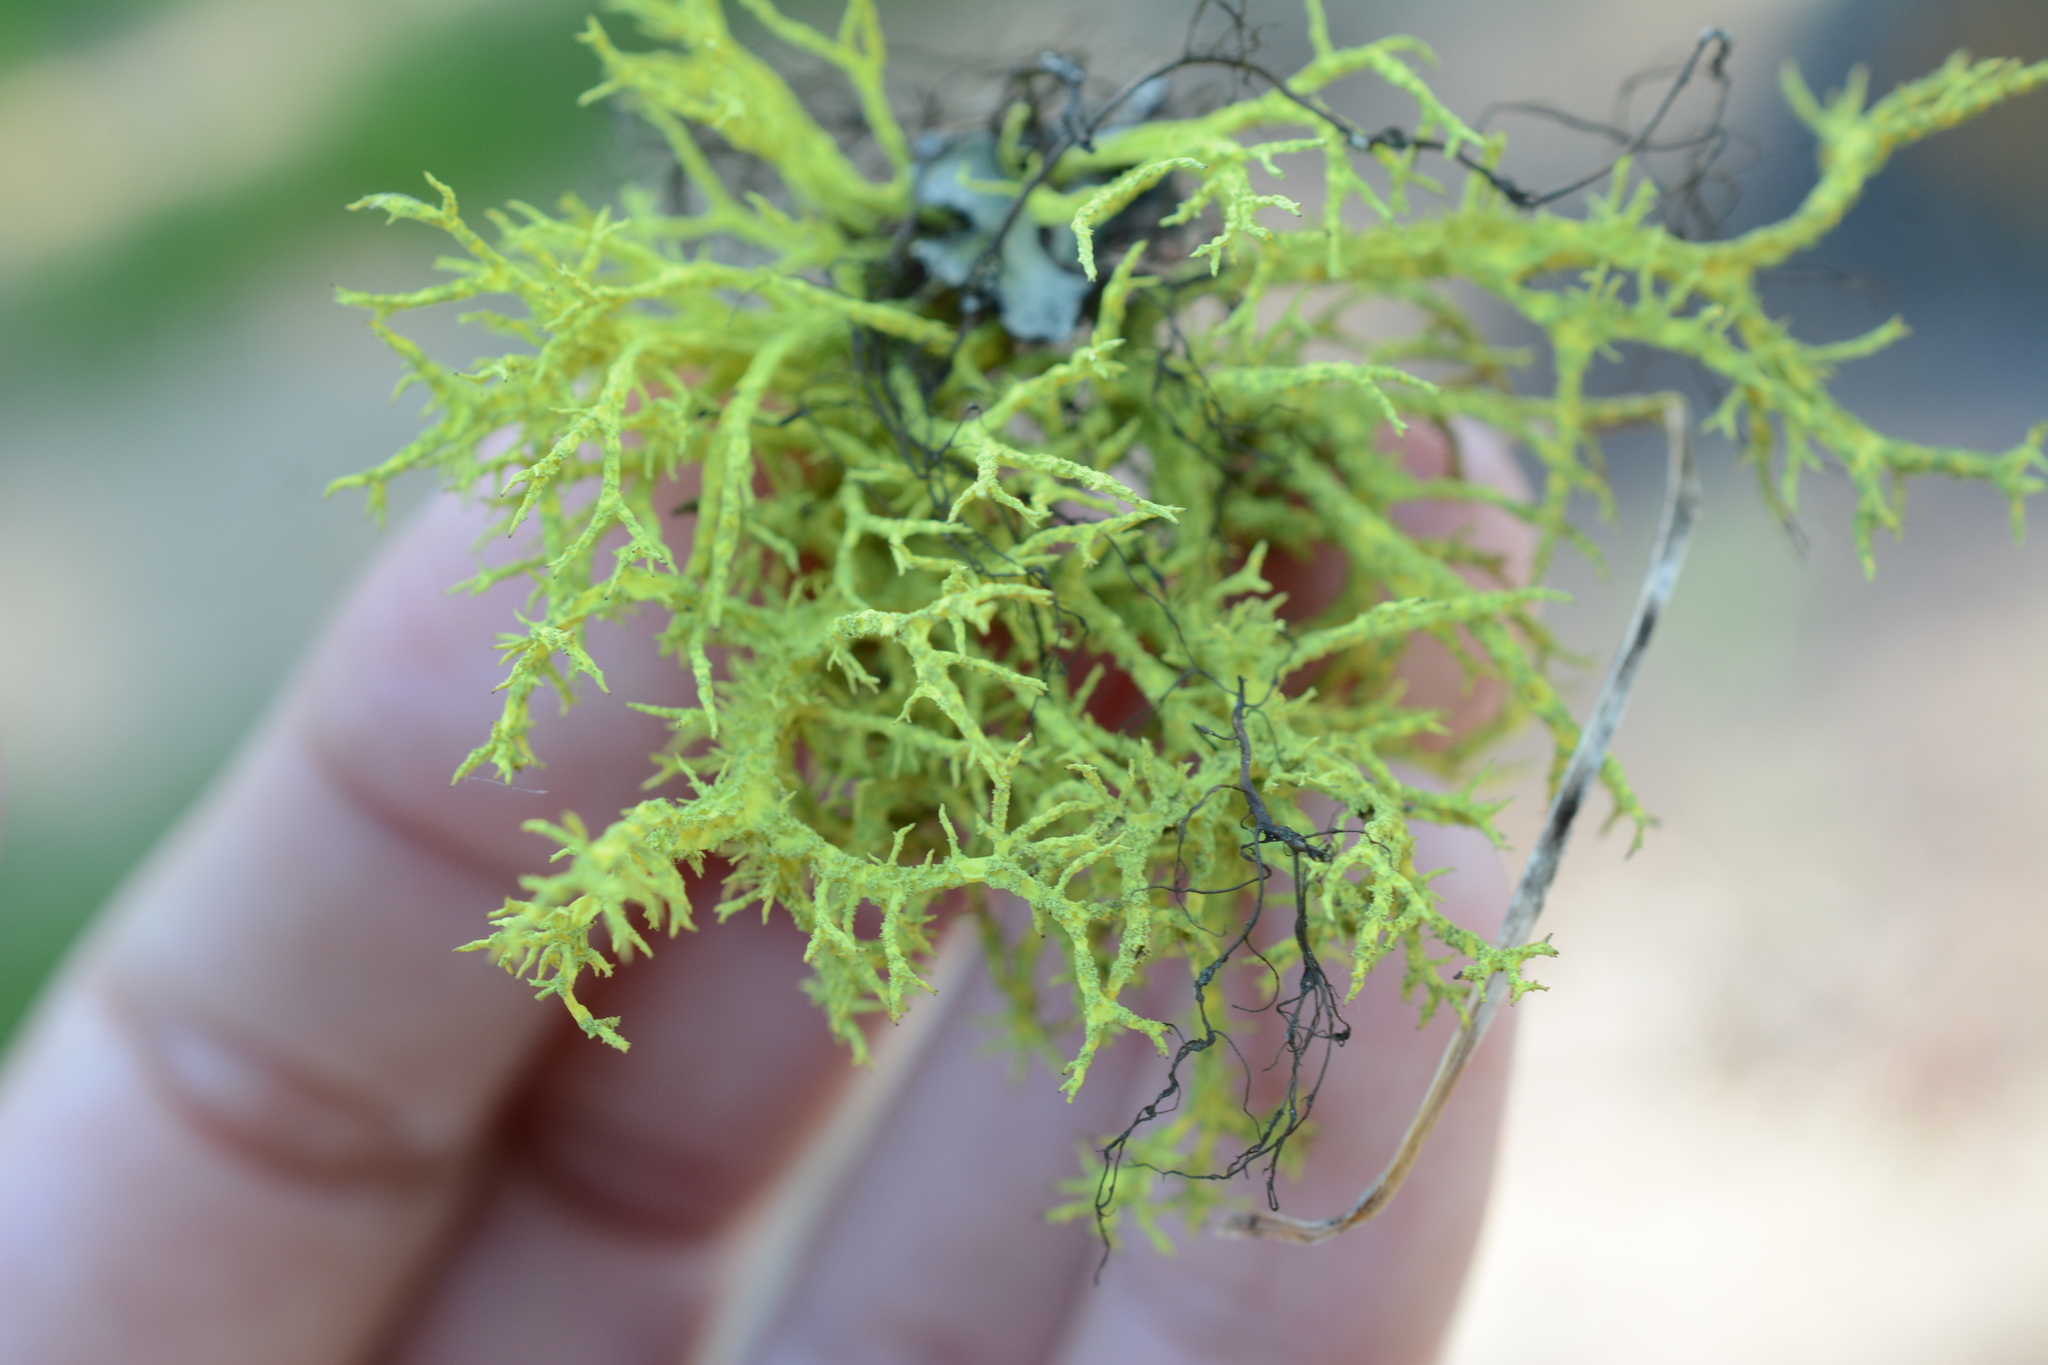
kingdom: Fungi
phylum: Ascomycota
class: Lecanoromycetes
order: Lecanorales
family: Parmeliaceae
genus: Letharia
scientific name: Letharia lupina
